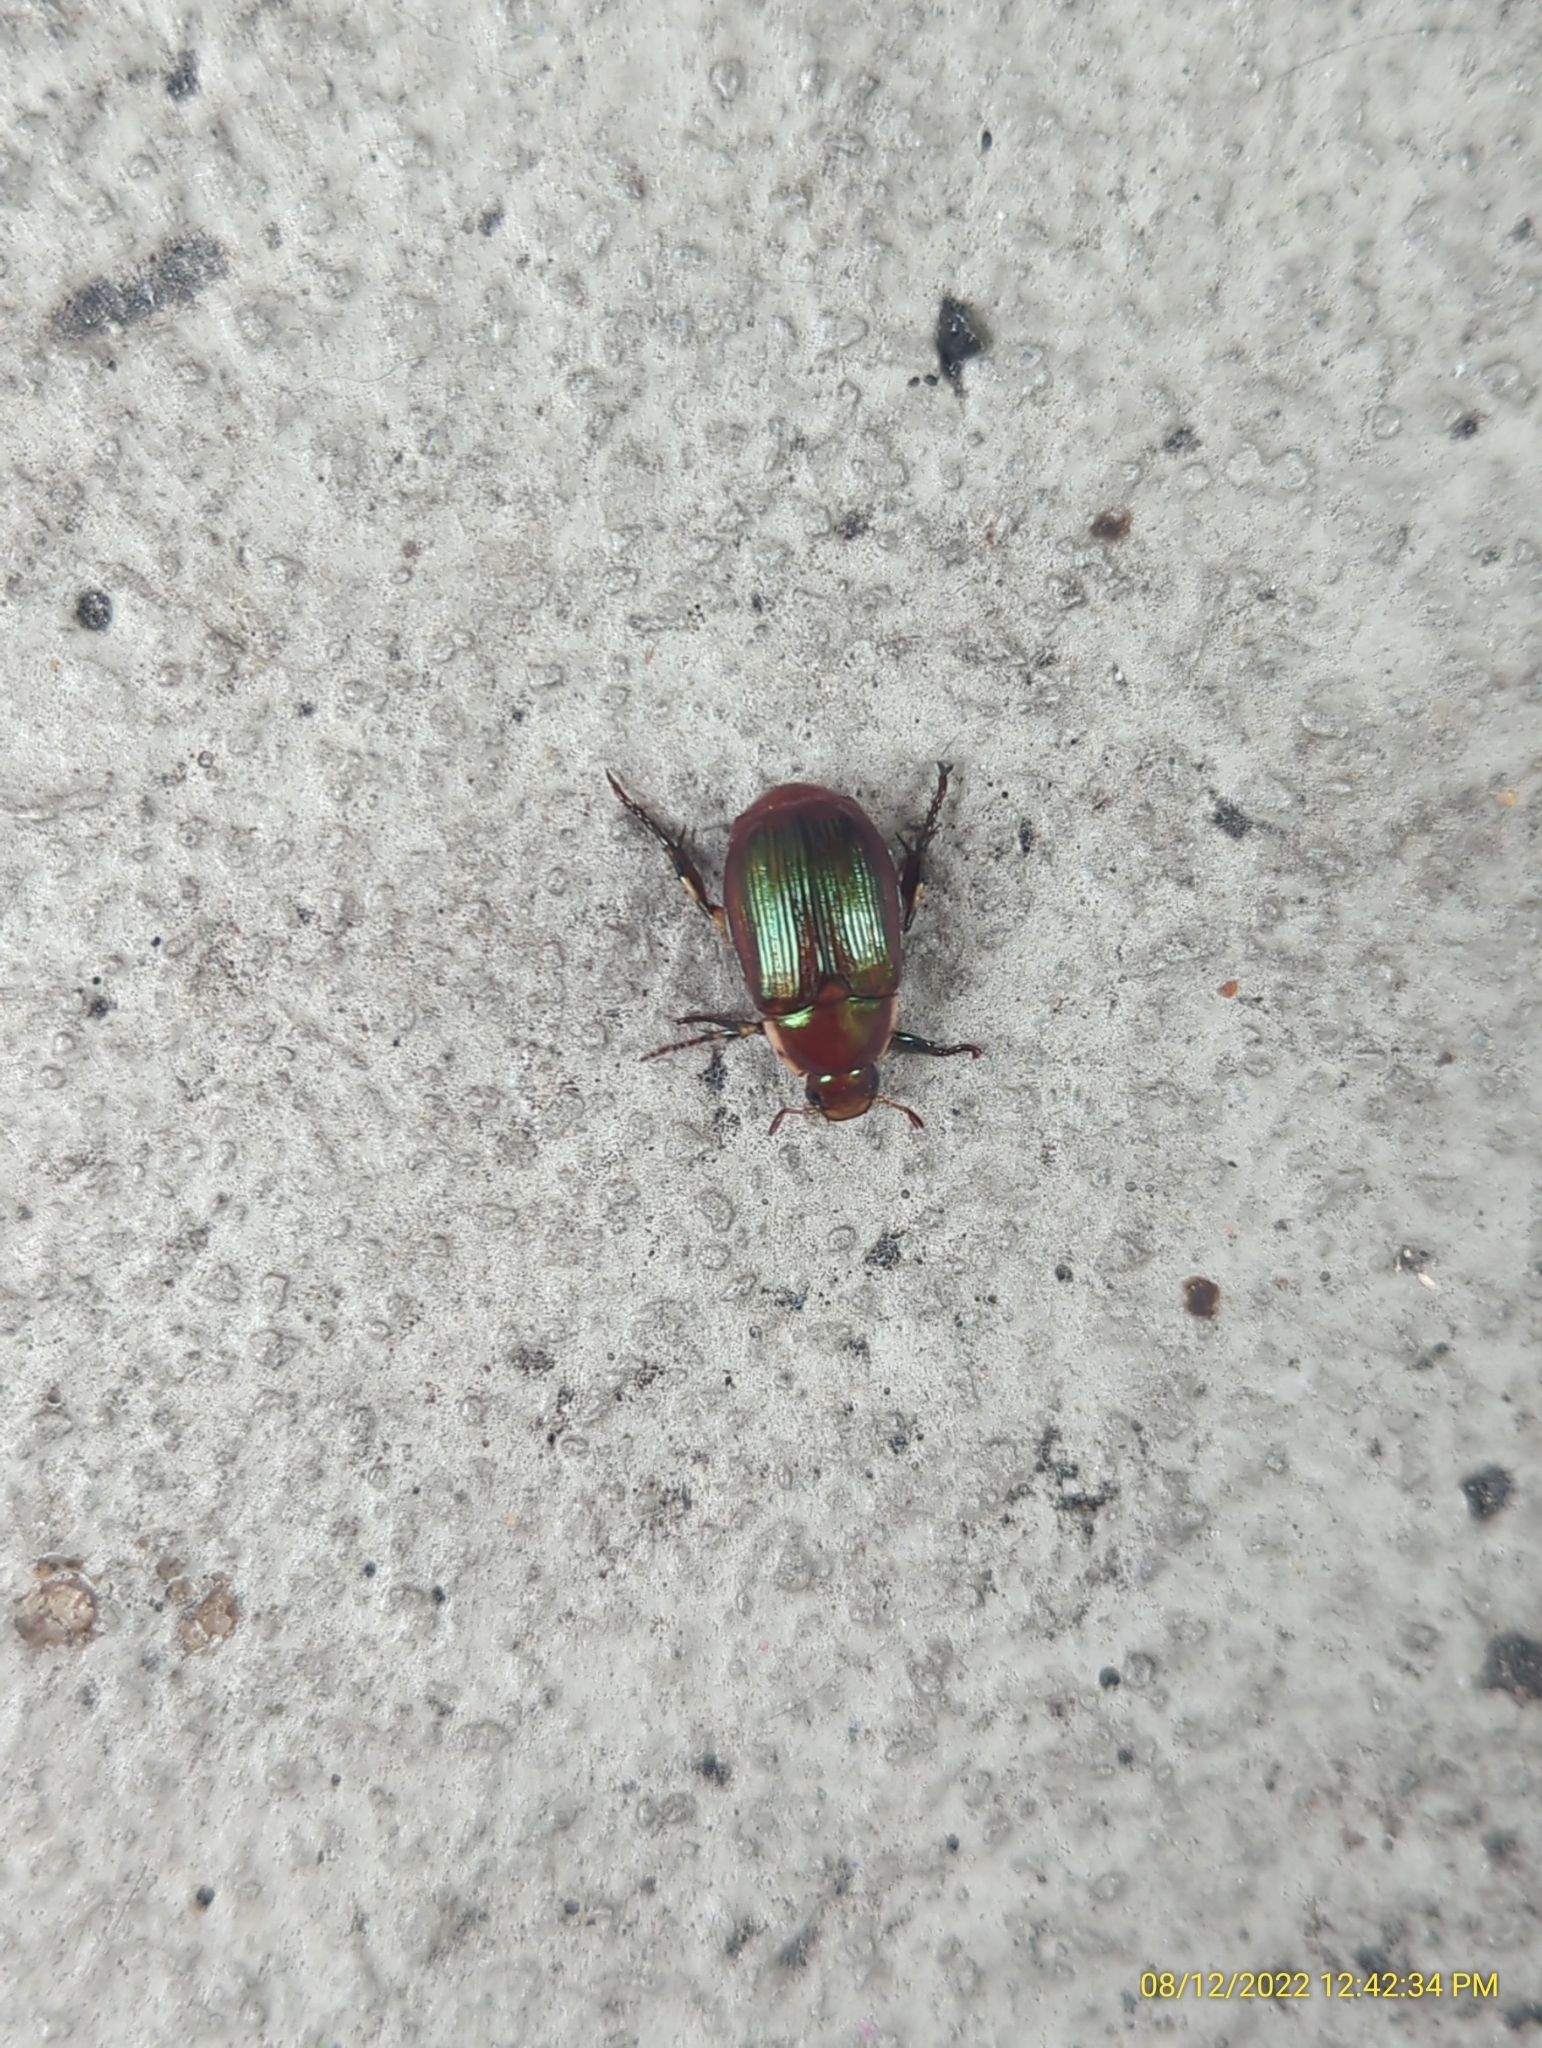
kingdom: Animalia
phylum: Arthropoda
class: Insecta
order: Coleoptera
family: Scarabaeidae
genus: Callistethus
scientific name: Callistethus marginatus
